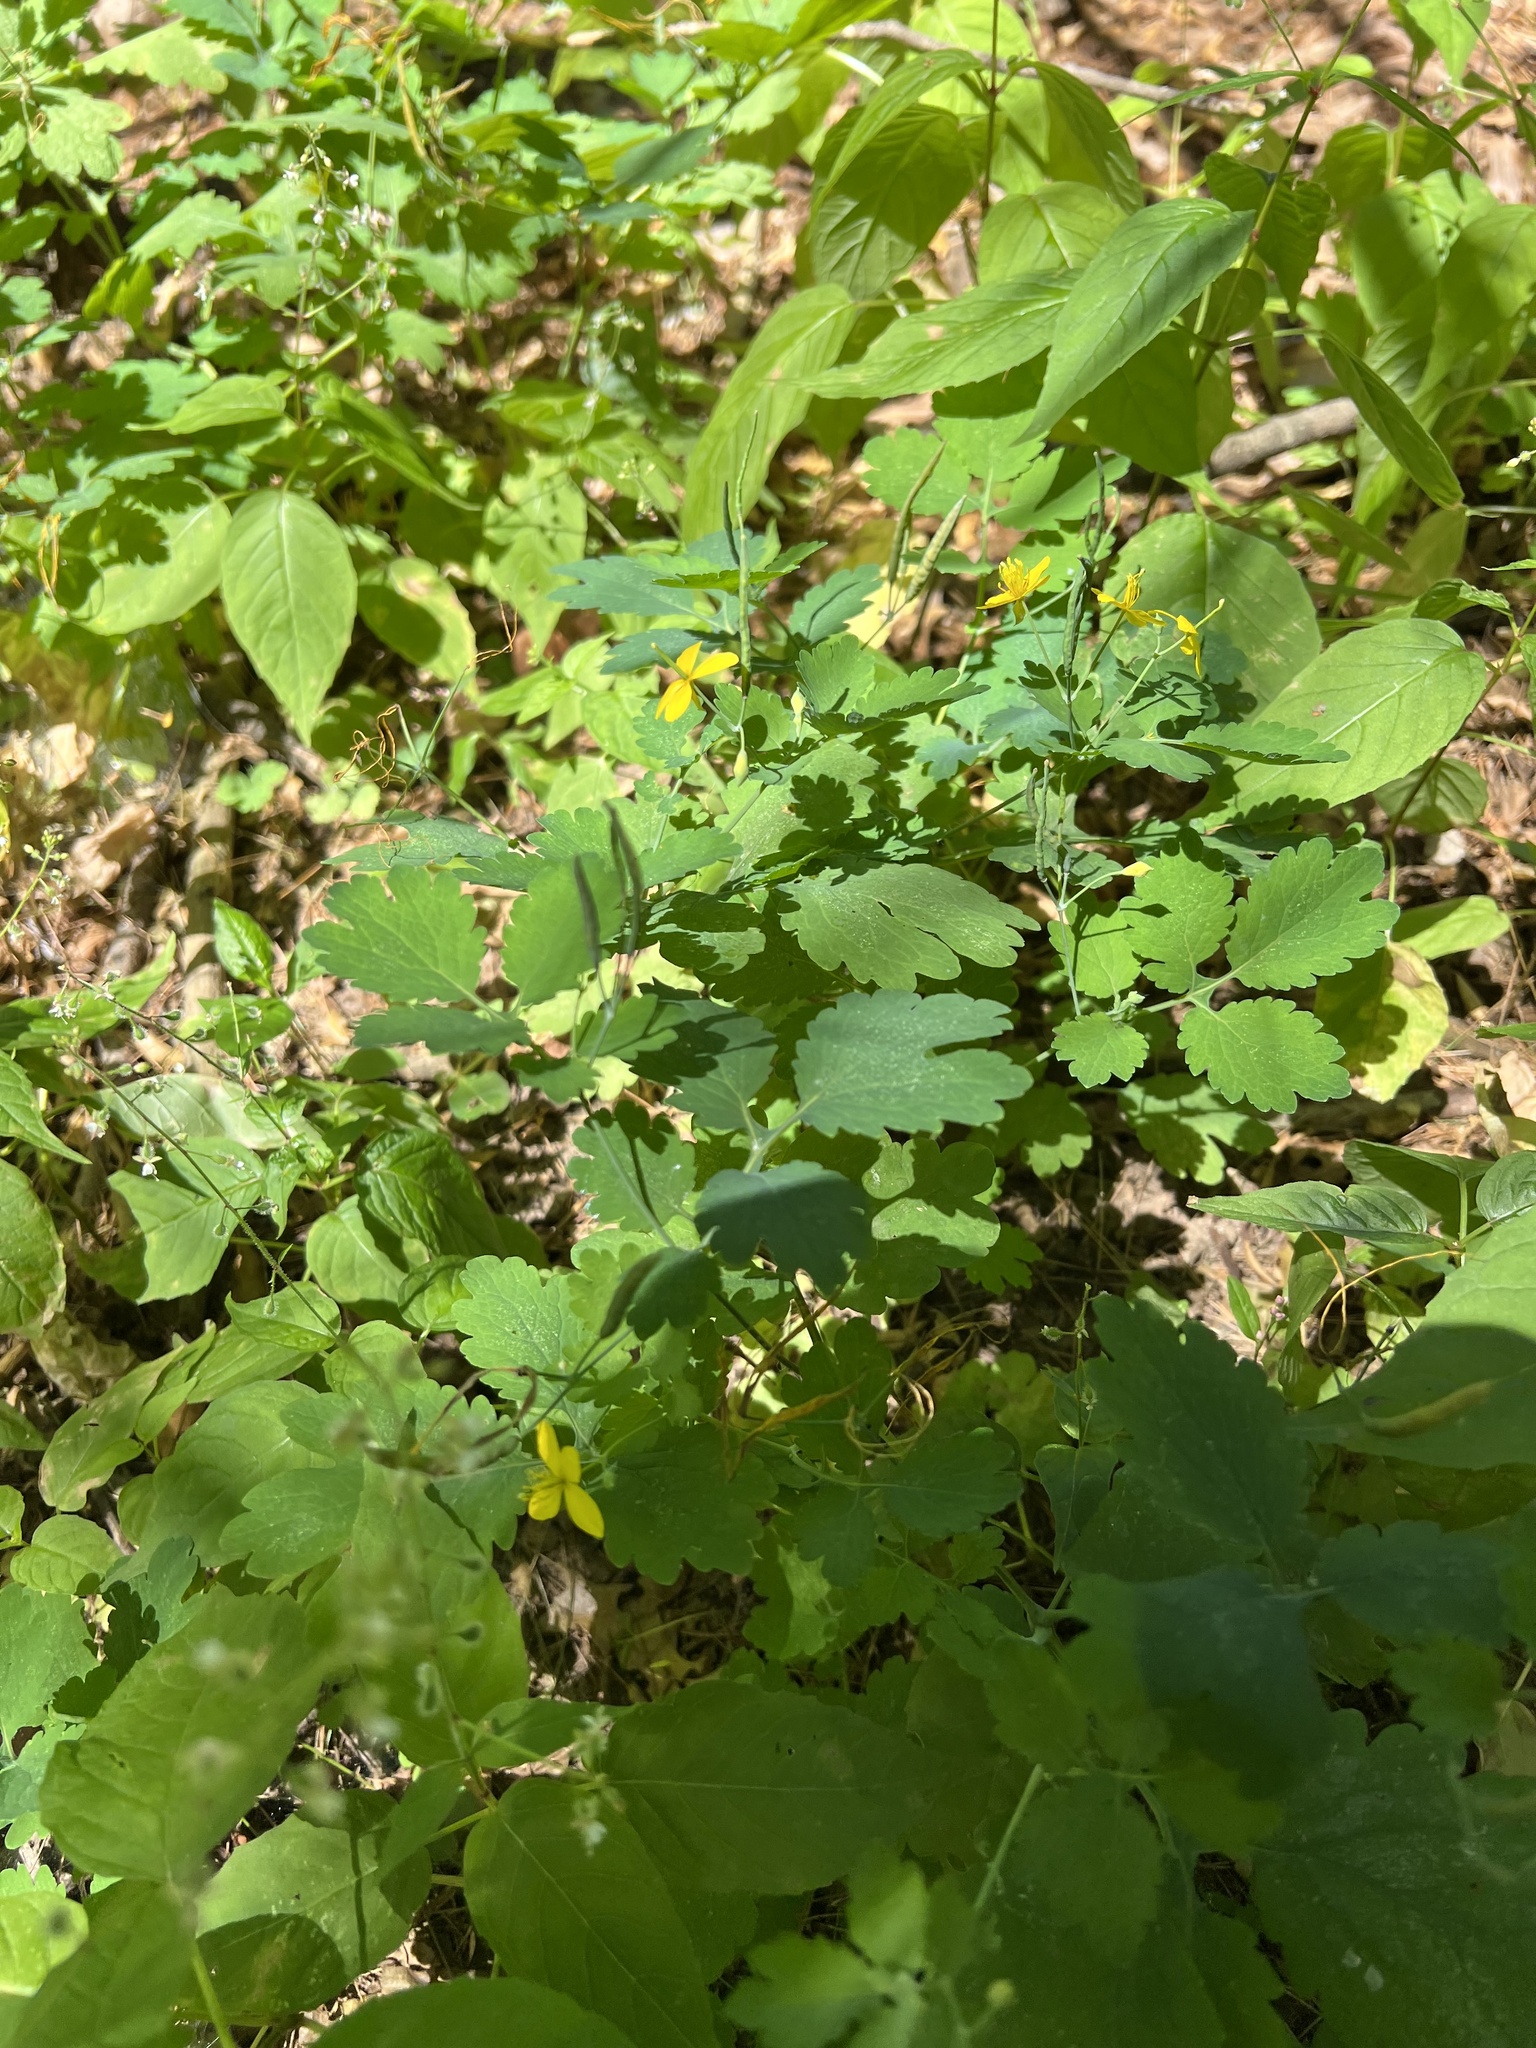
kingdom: Plantae
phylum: Tracheophyta
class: Magnoliopsida
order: Ranunculales
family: Papaveraceae
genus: Chelidonium
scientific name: Chelidonium majus
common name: Greater celandine
